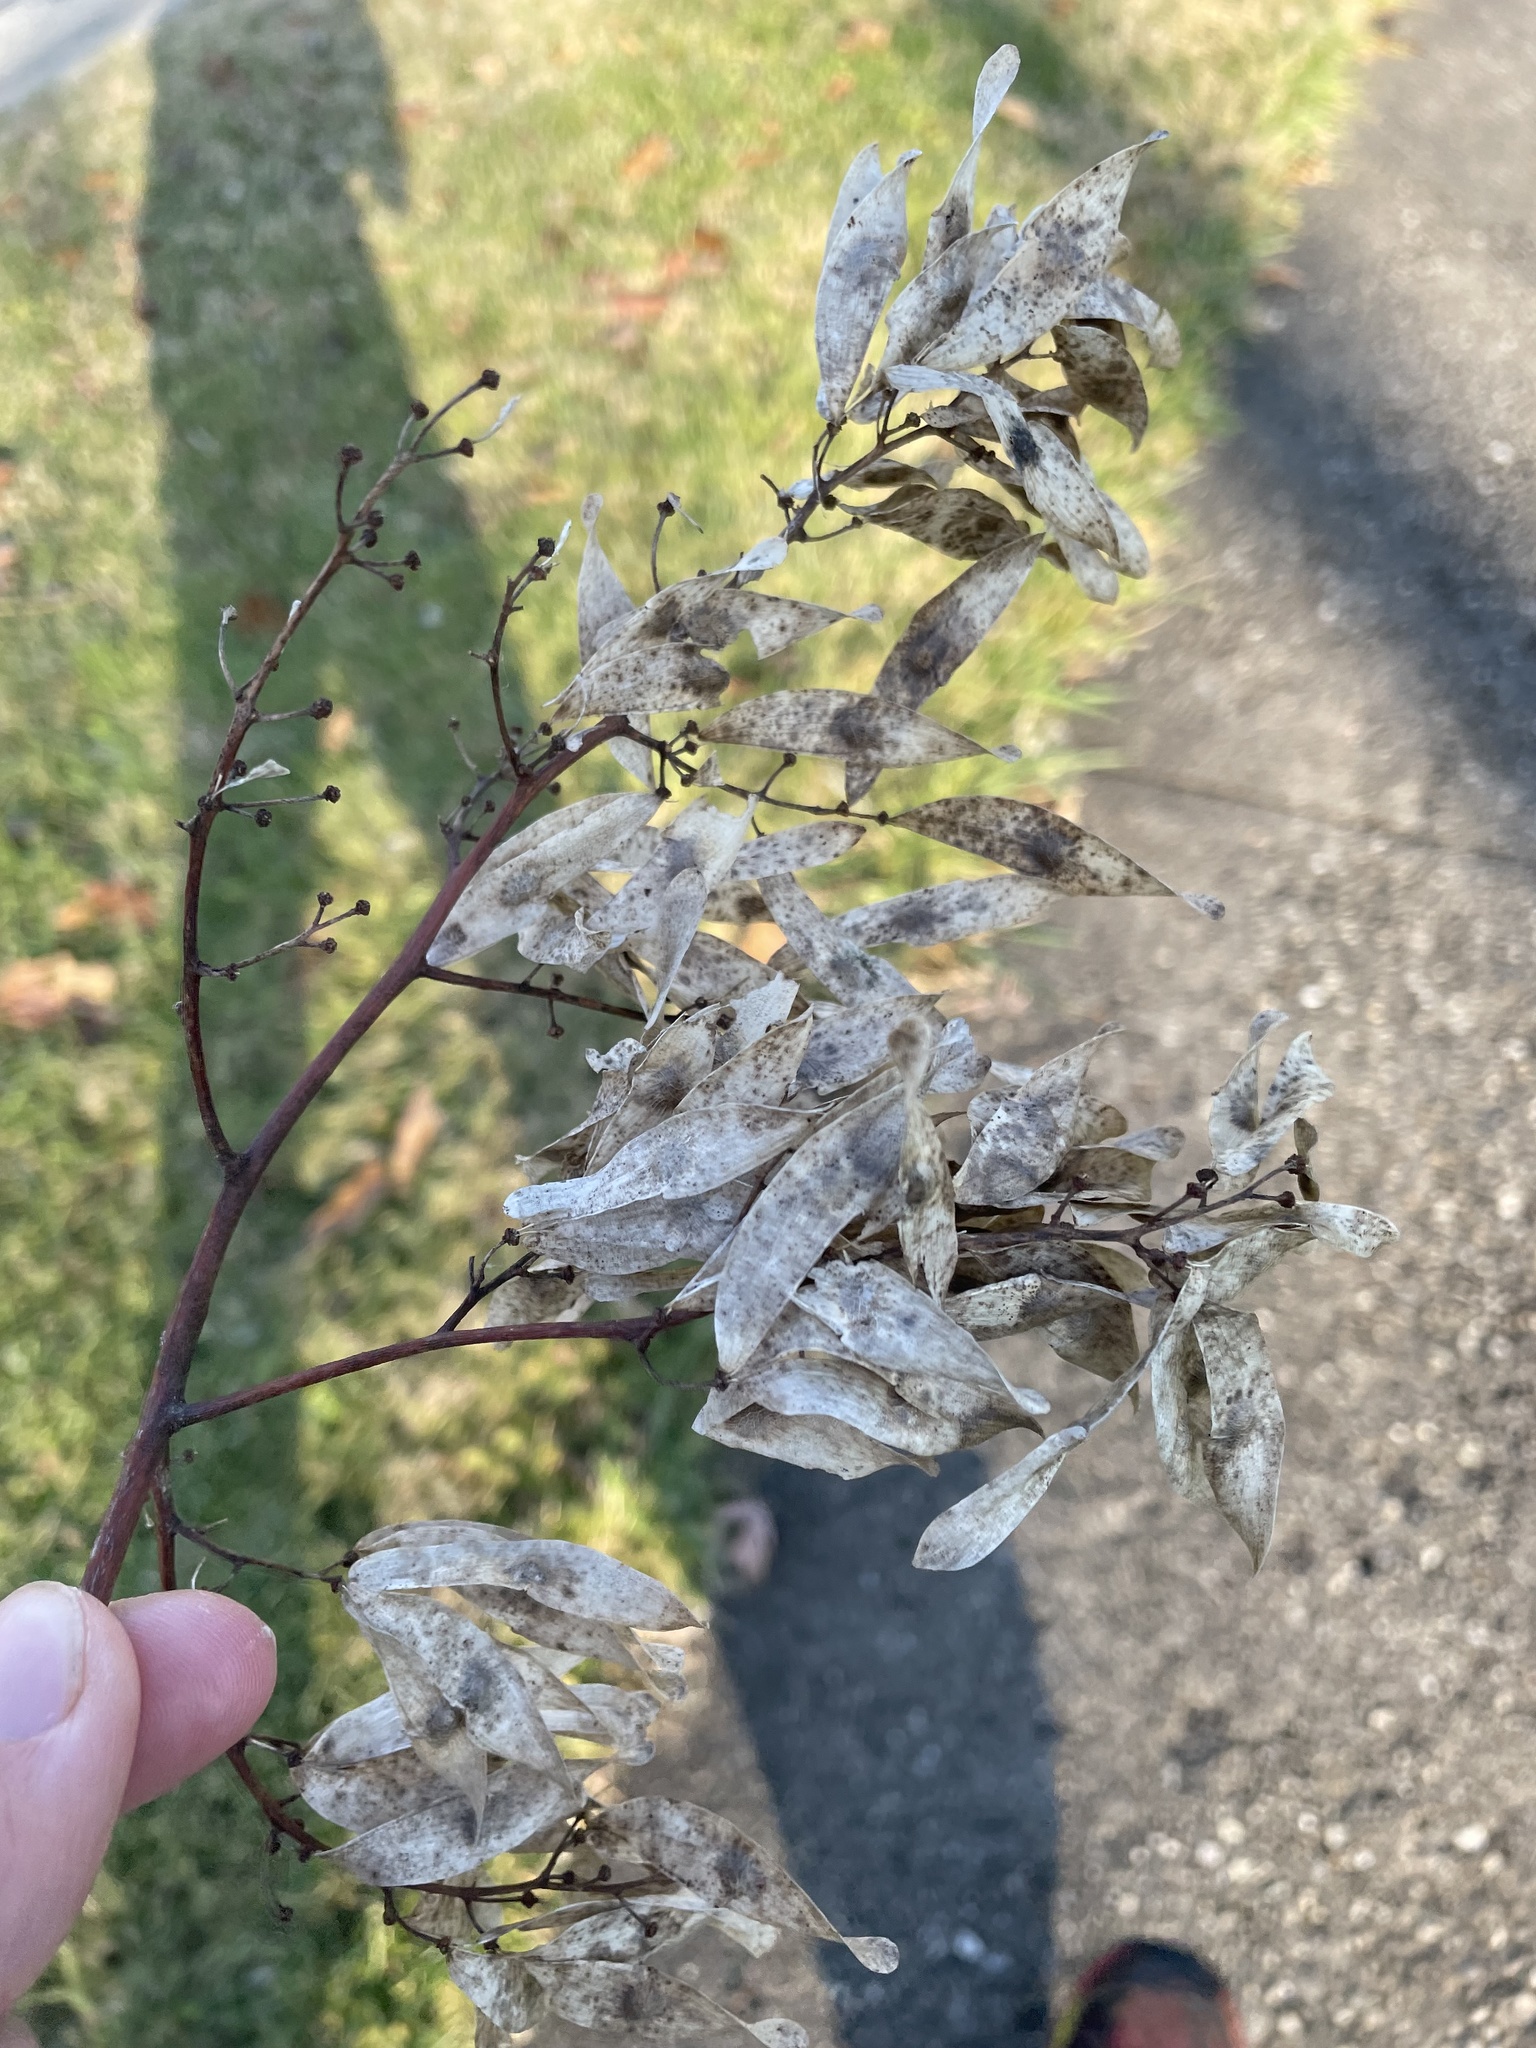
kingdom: Plantae
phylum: Tracheophyta
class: Magnoliopsida
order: Sapindales
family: Simaroubaceae
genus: Ailanthus
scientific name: Ailanthus altissima
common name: Tree-of-heaven
